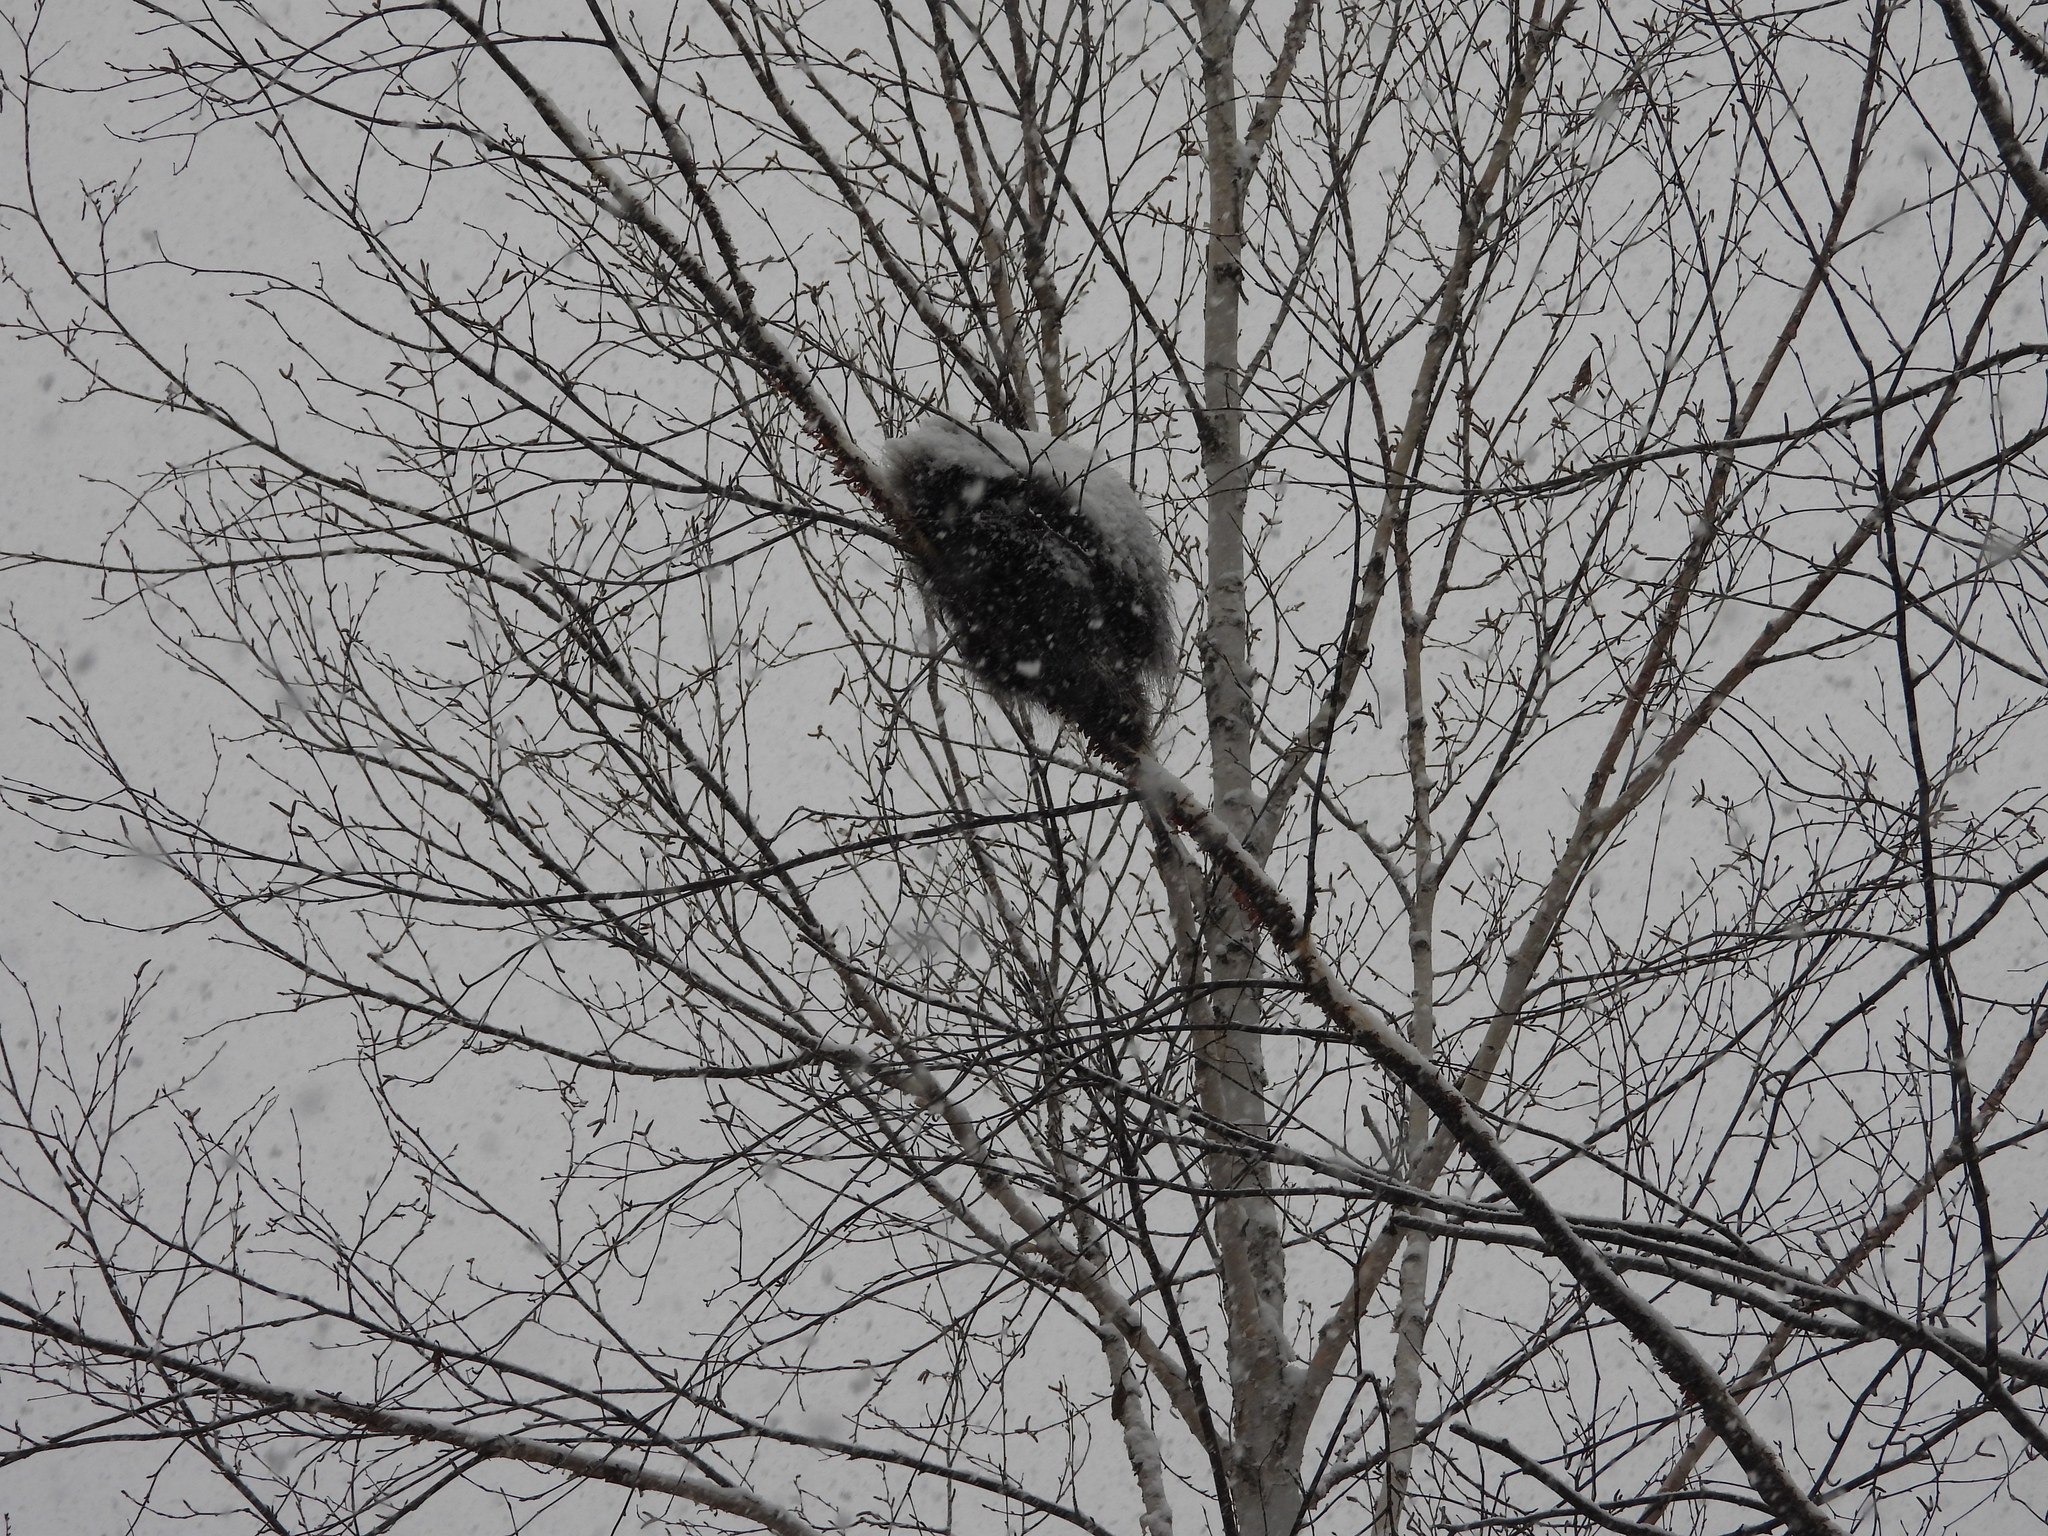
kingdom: Animalia
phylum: Chordata
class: Mammalia
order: Rodentia
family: Erethizontidae
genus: Erethizon
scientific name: Erethizon dorsatus
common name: North american porcupine
